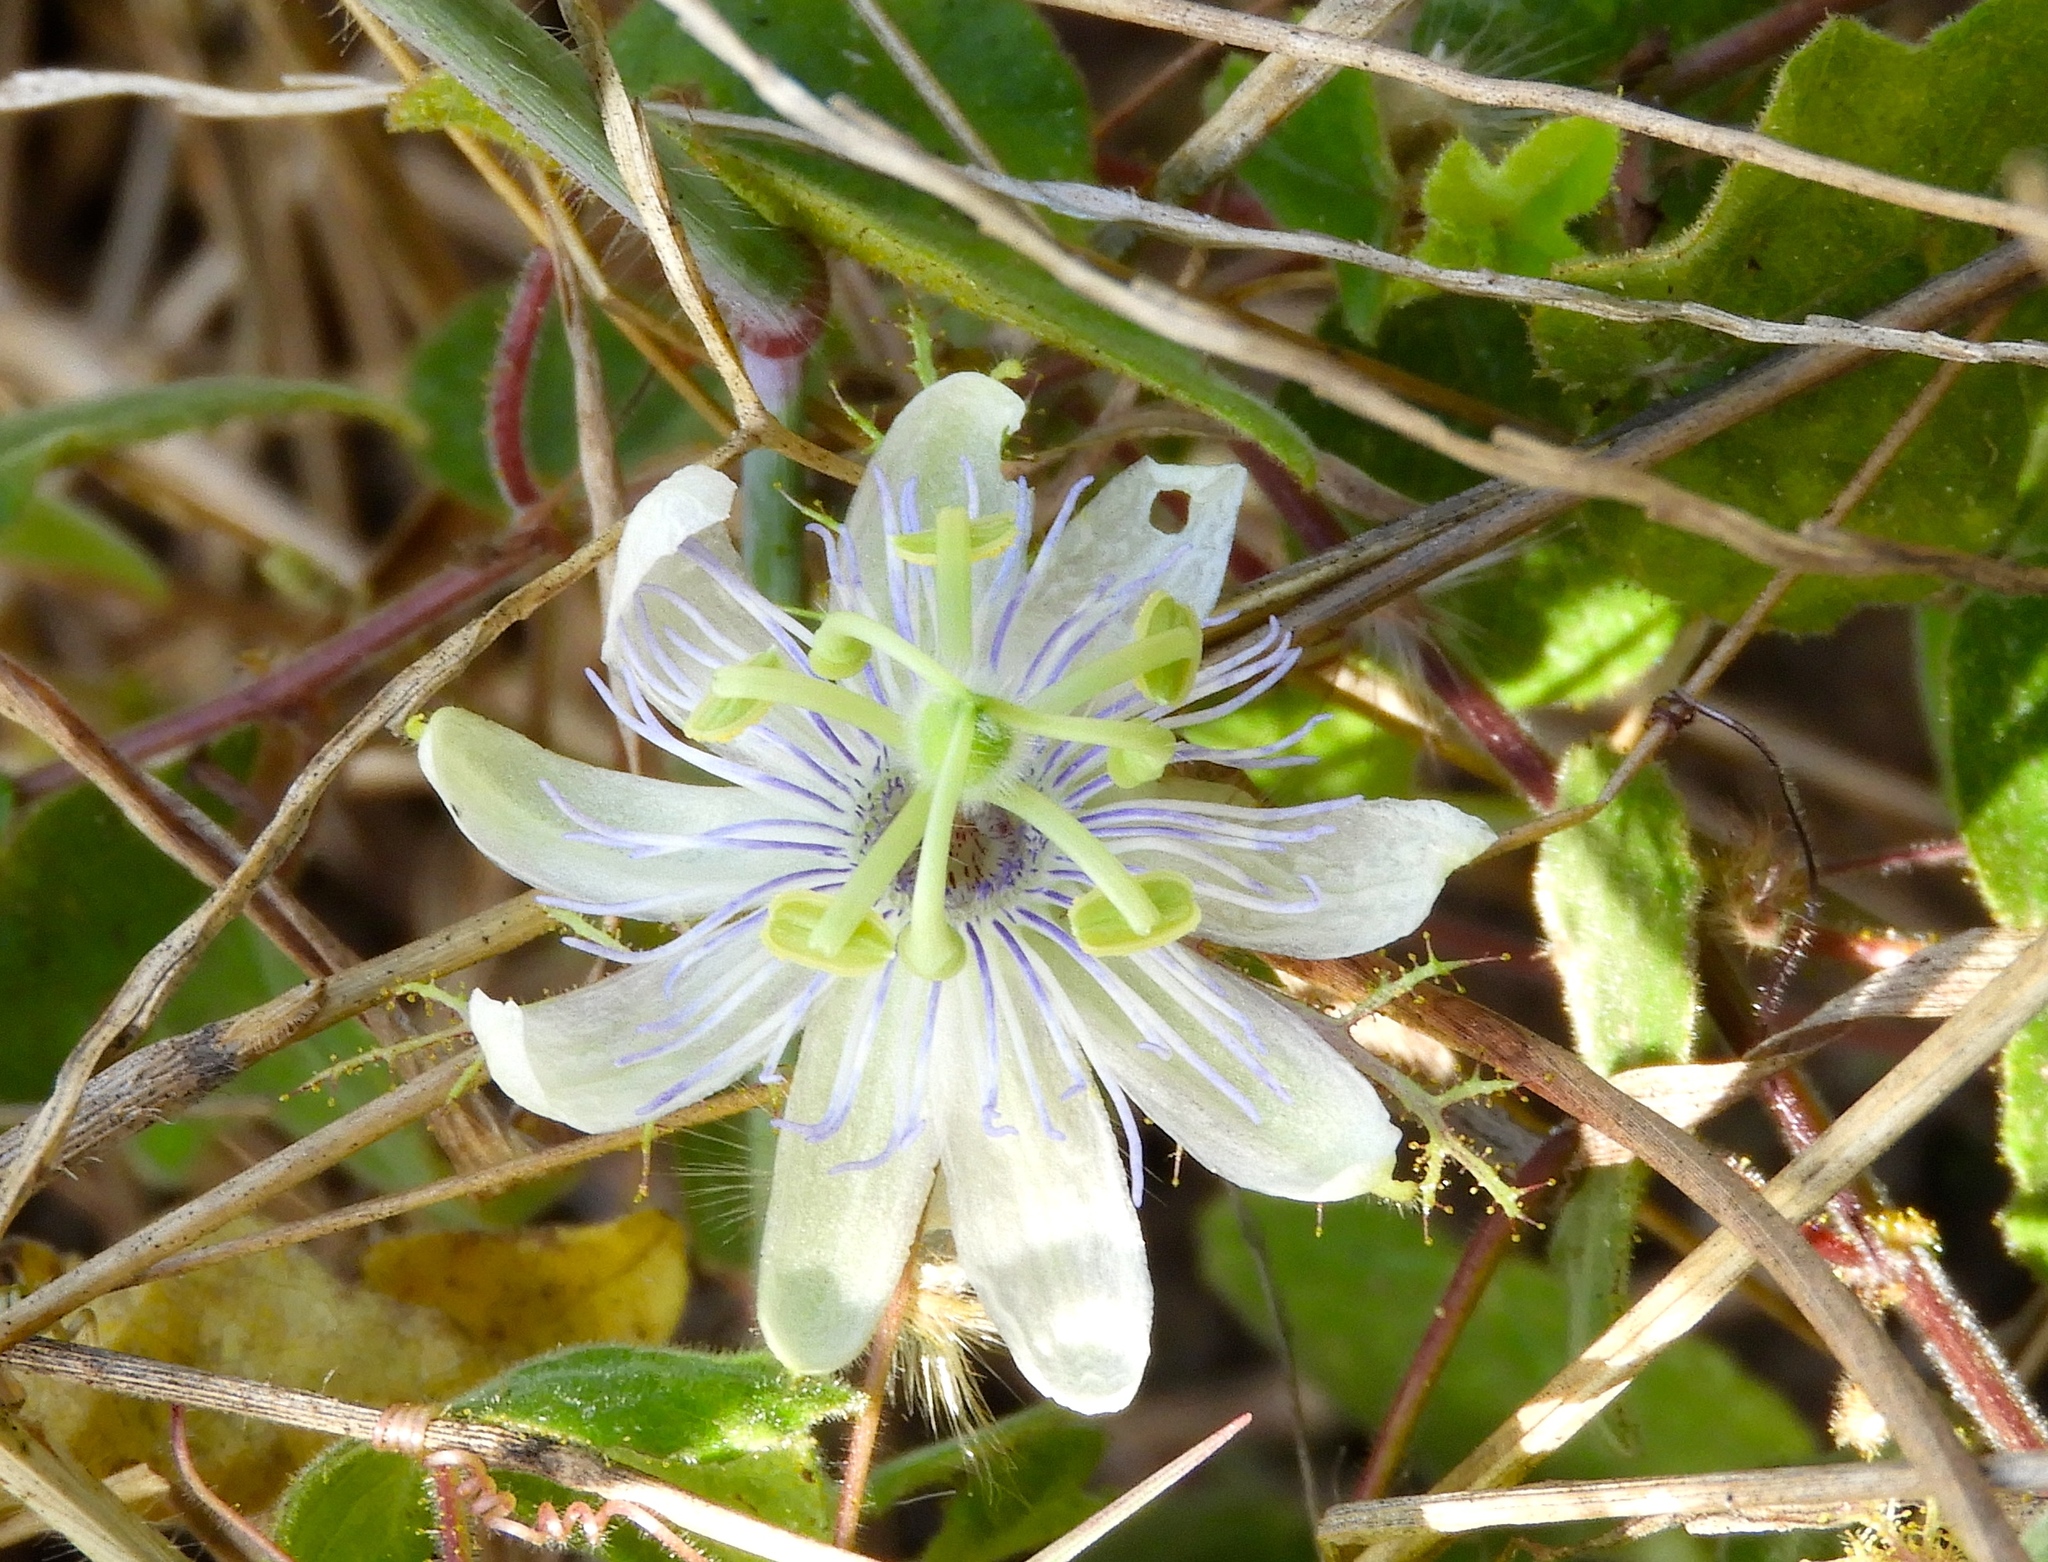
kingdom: Plantae
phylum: Tracheophyta
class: Magnoliopsida
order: Malpighiales
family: Passifloraceae
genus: Passiflora
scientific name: Passiflora foetida
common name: Fetid passionflower
